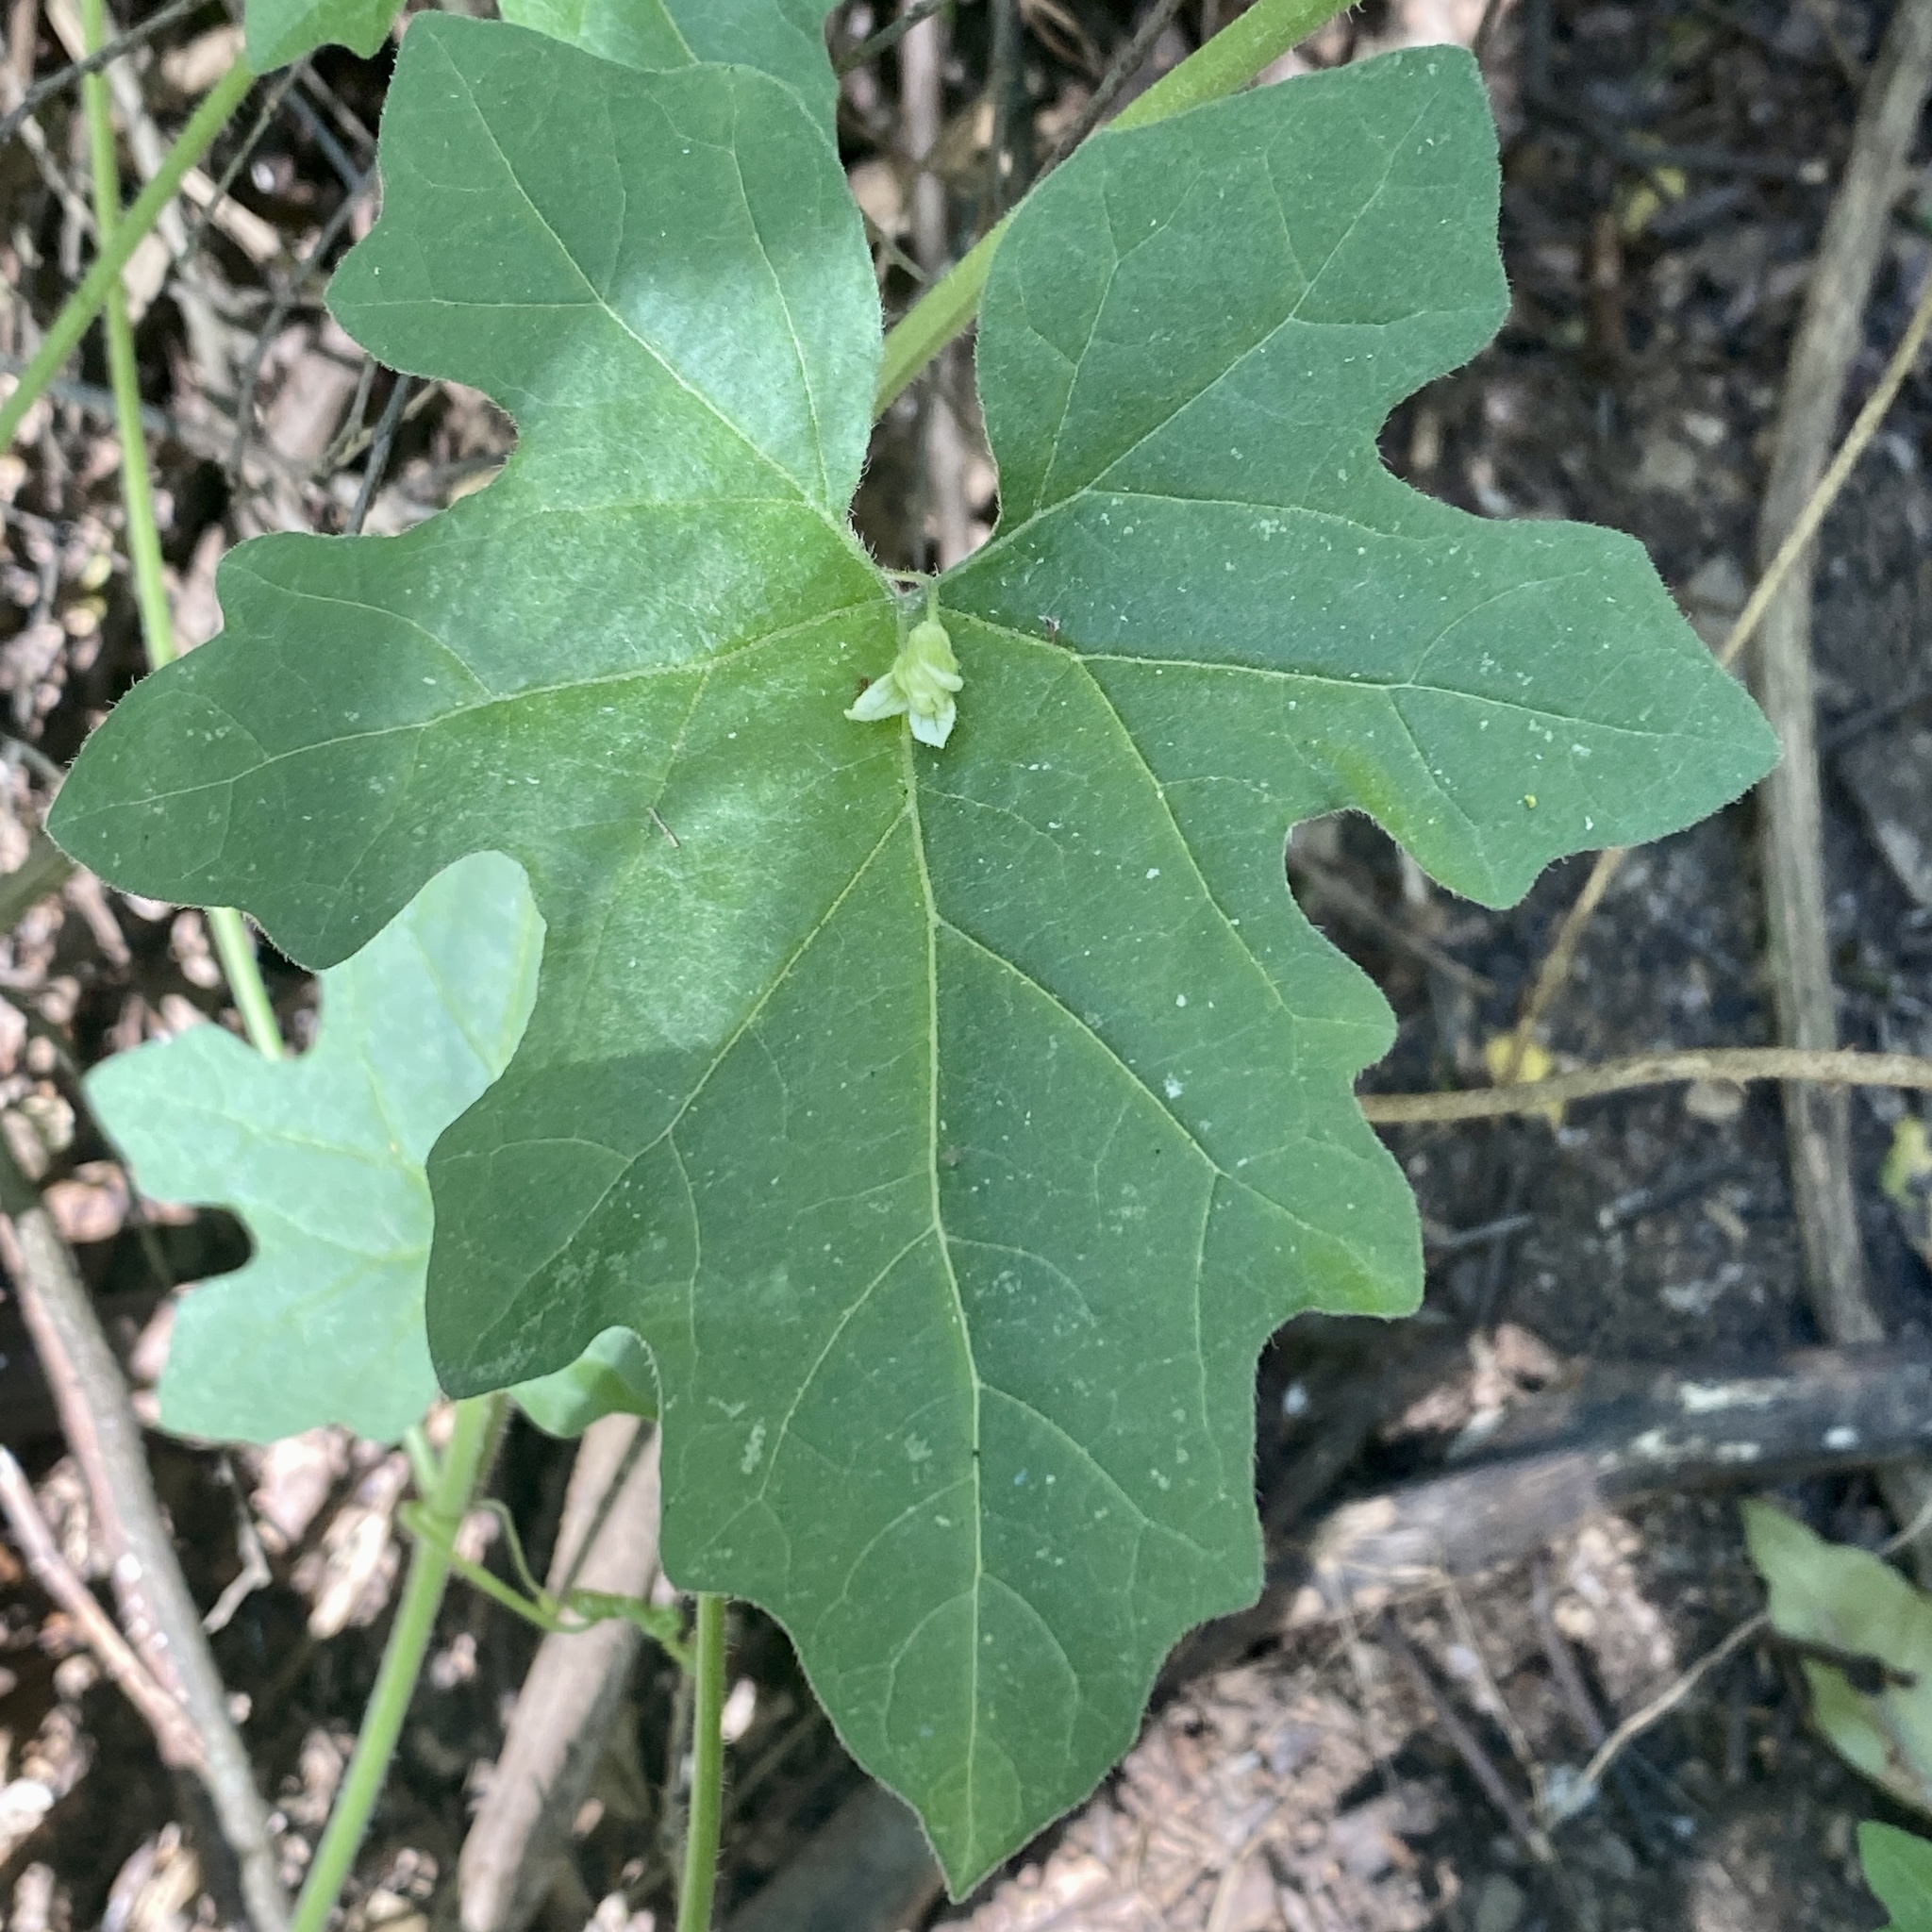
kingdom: Plantae
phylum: Tracheophyta
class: Magnoliopsida
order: Cucurbitales
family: Cucurbitaceae
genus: Bryonia
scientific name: Bryonia cretica
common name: Cretan bryony
